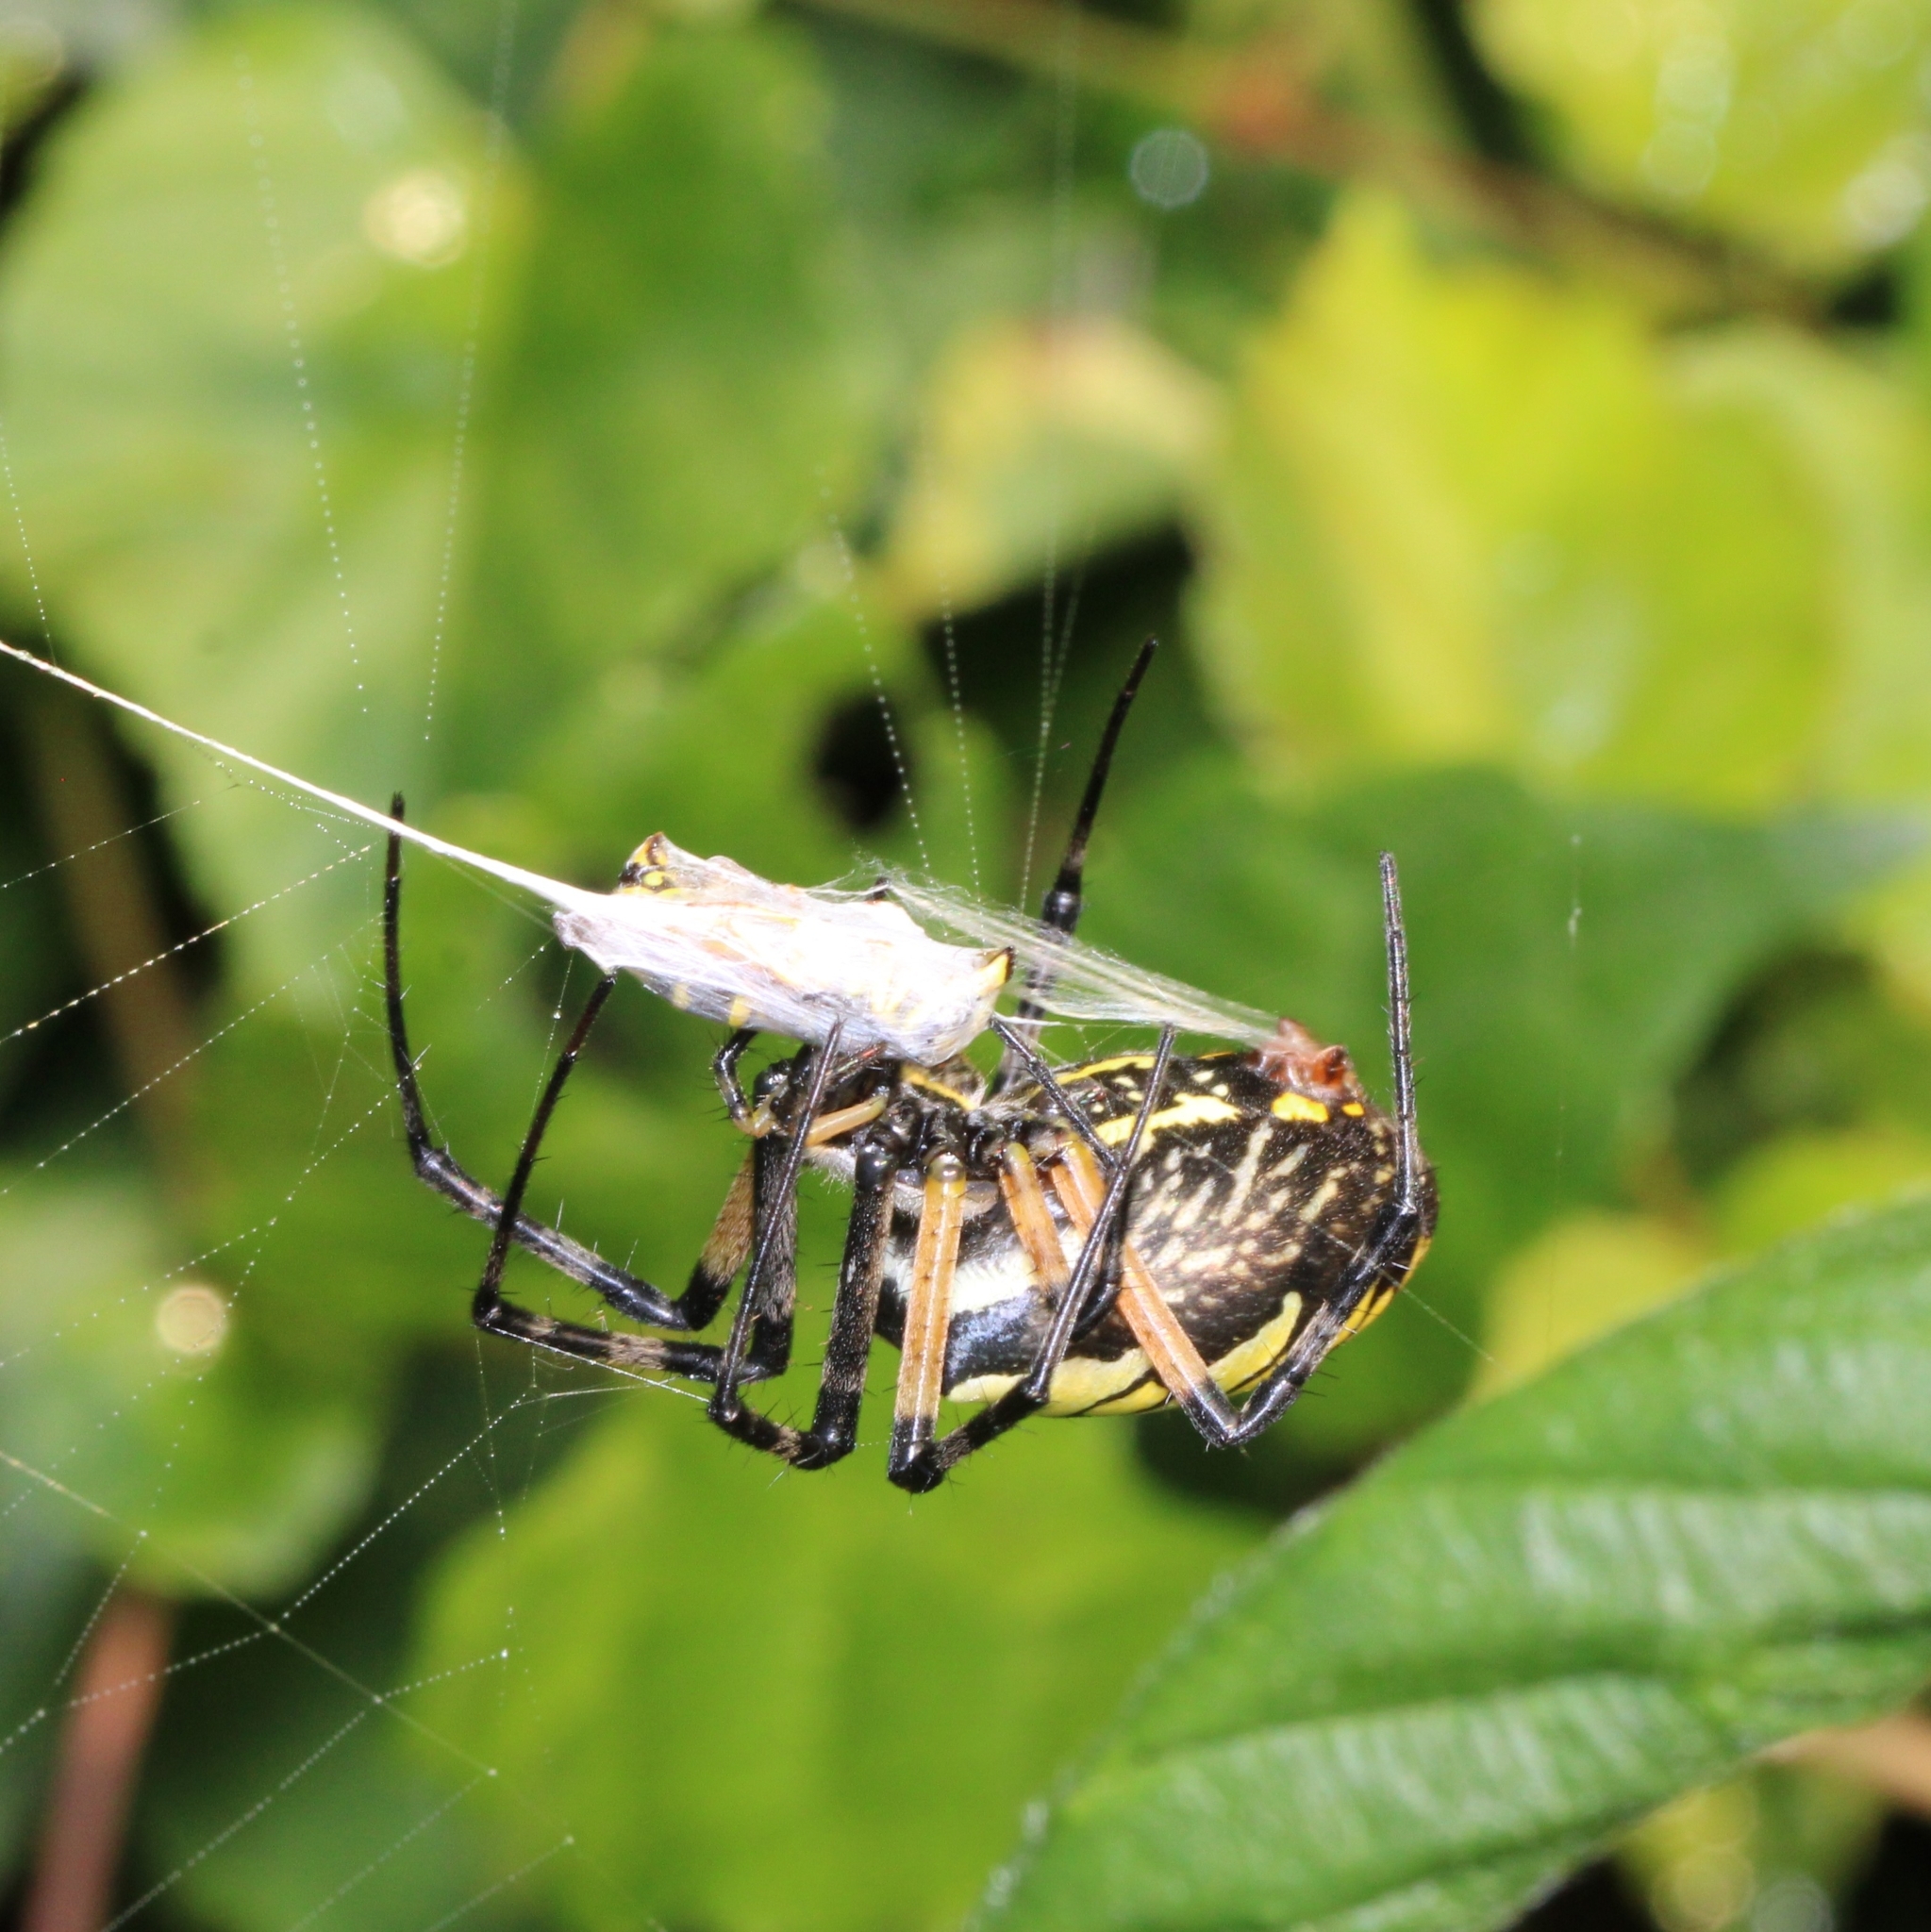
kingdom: Animalia
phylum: Arthropoda
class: Arachnida
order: Araneae
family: Araneidae
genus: Argiope
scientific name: Argiope aurantia
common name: Orb weavers
